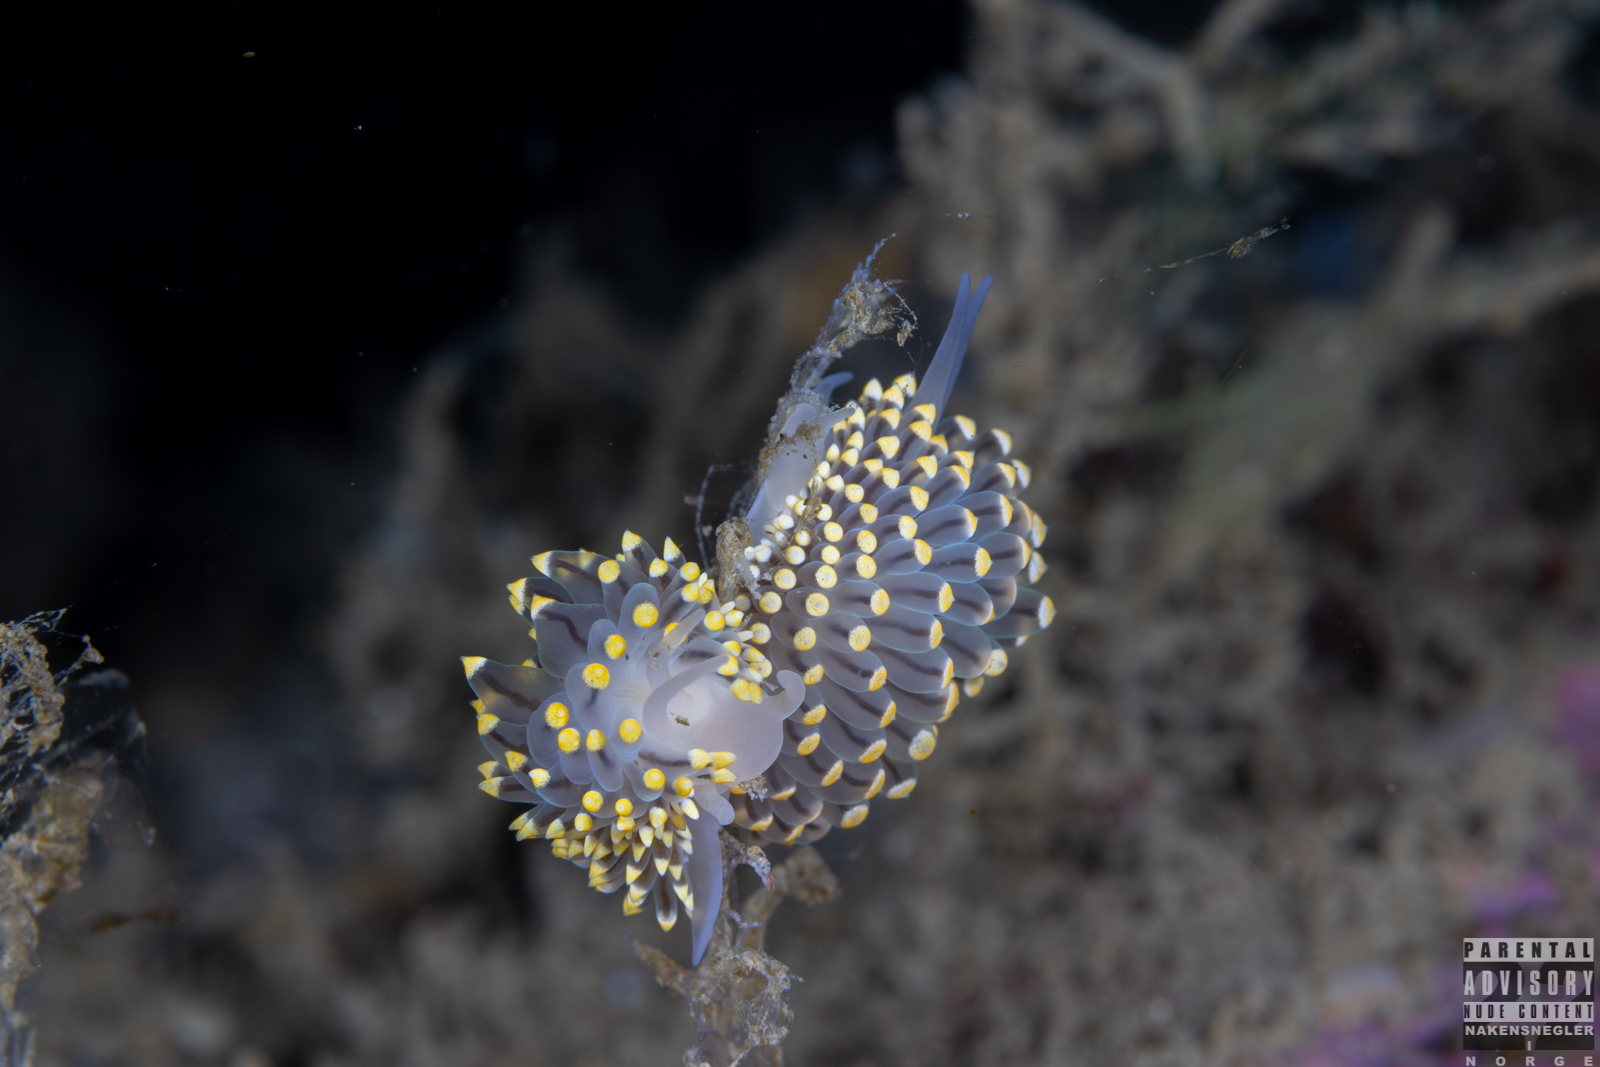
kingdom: Animalia
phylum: Mollusca
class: Gastropoda
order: Nudibranchia
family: Eubranchidae
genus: Eubranchus
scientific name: Eubranchus tricolor
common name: Painted balloon aeolis
